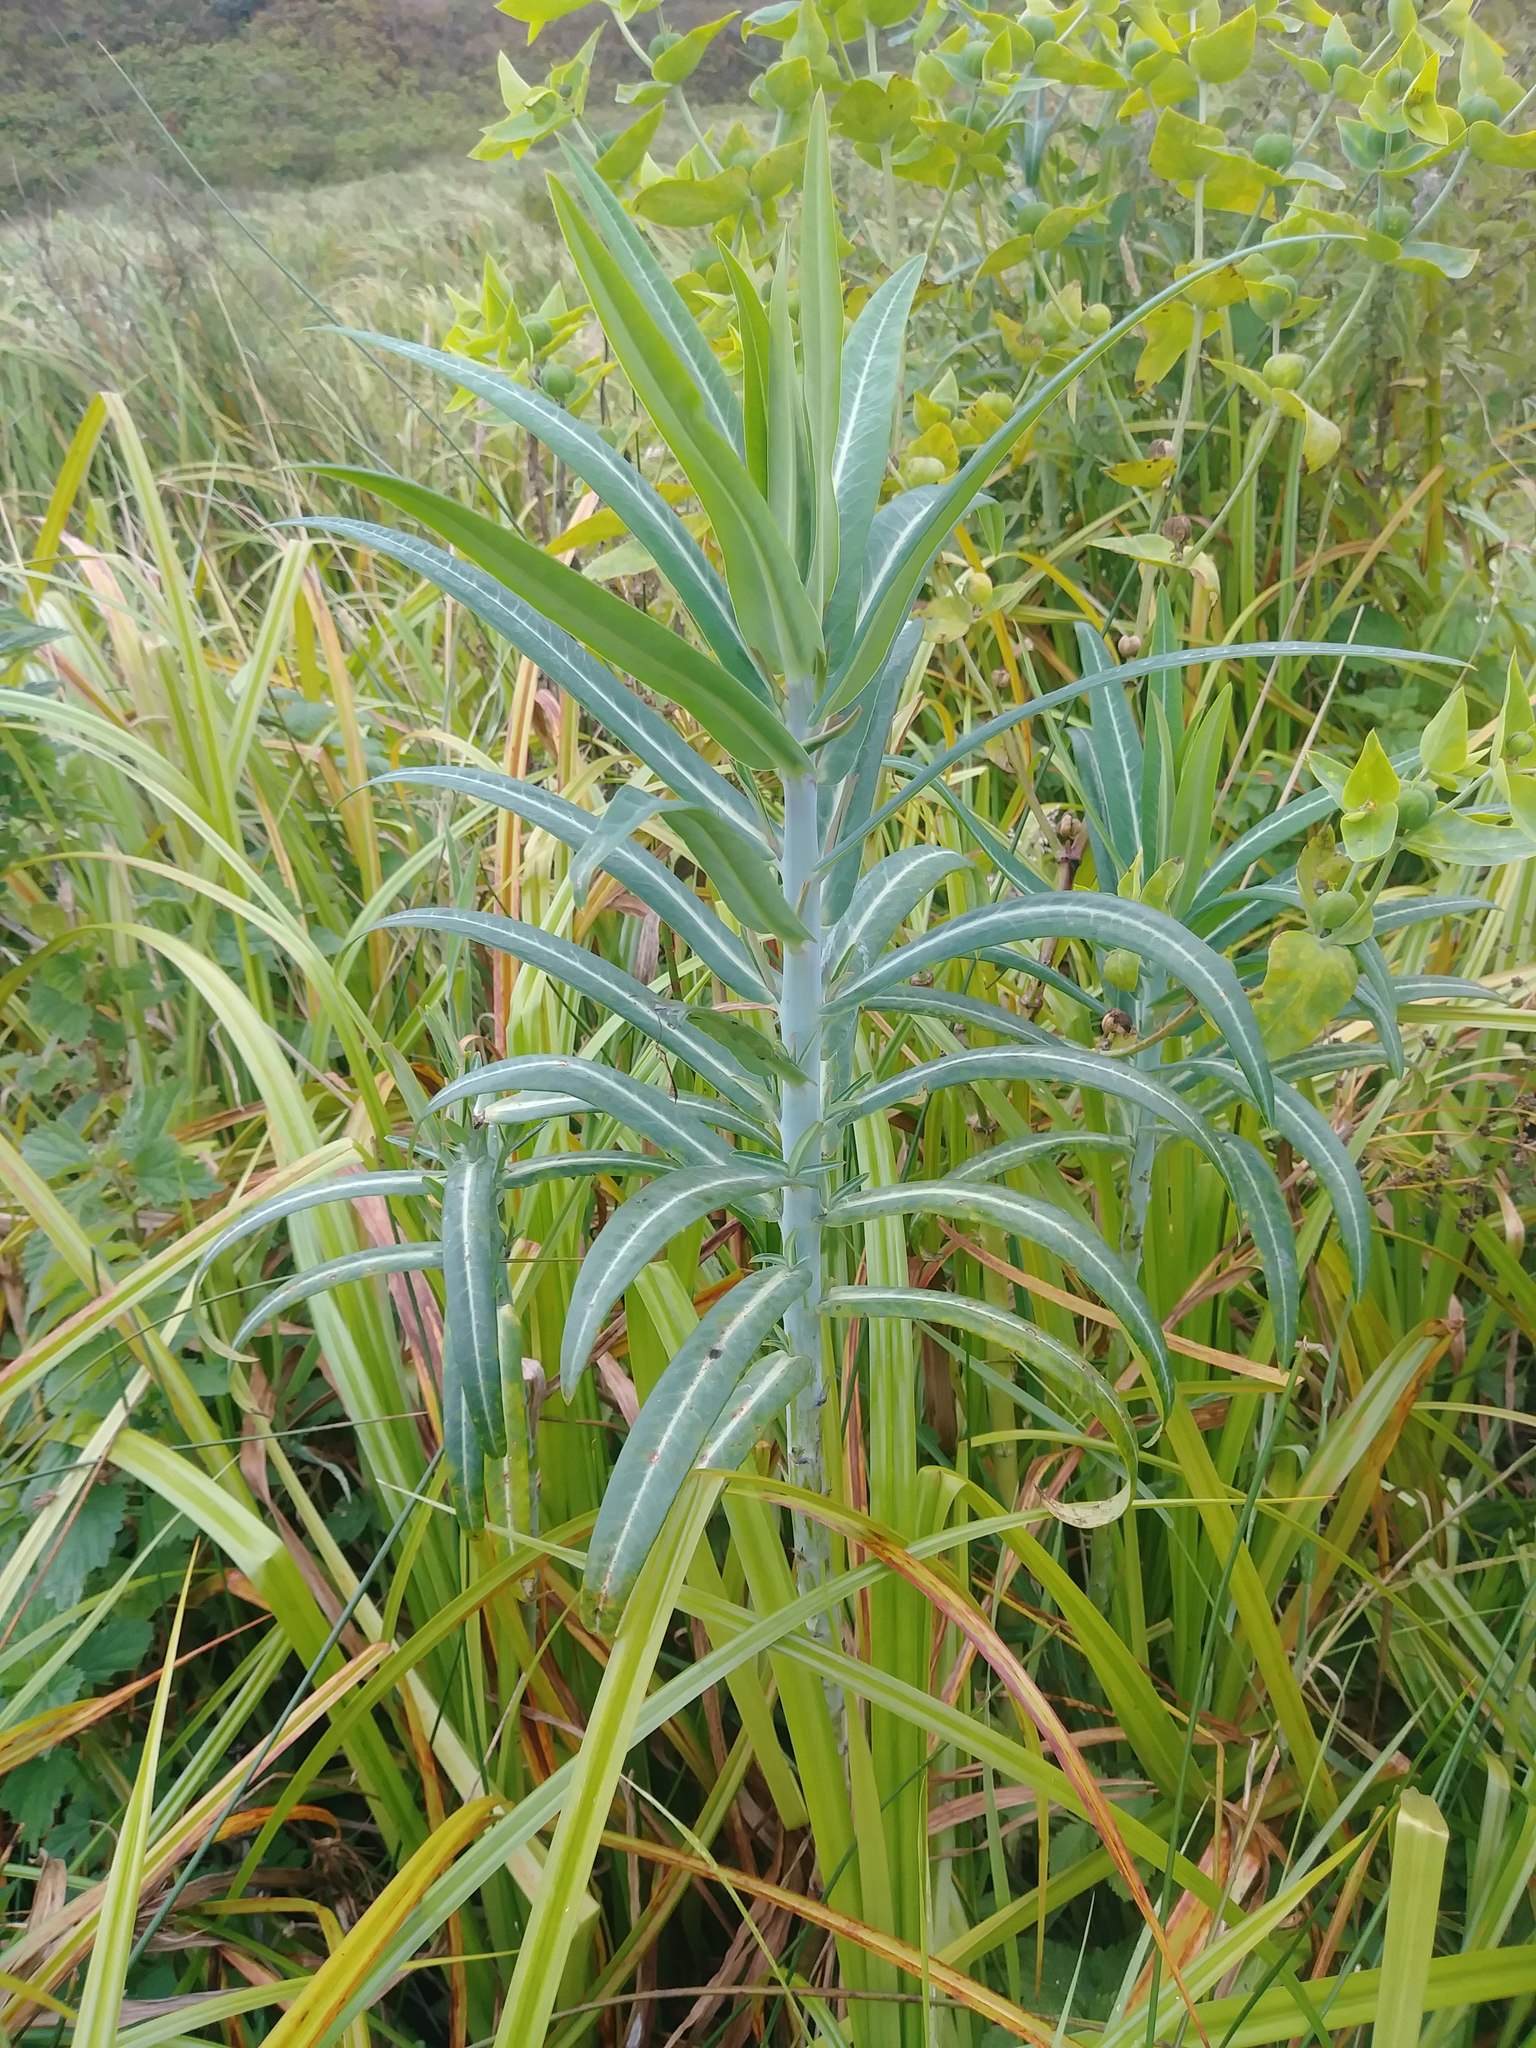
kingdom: Plantae
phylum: Tracheophyta
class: Magnoliopsida
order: Malpighiales
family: Euphorbiaceae
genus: Euphorbia
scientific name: Euphorbia lathyris
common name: Caper spurge
